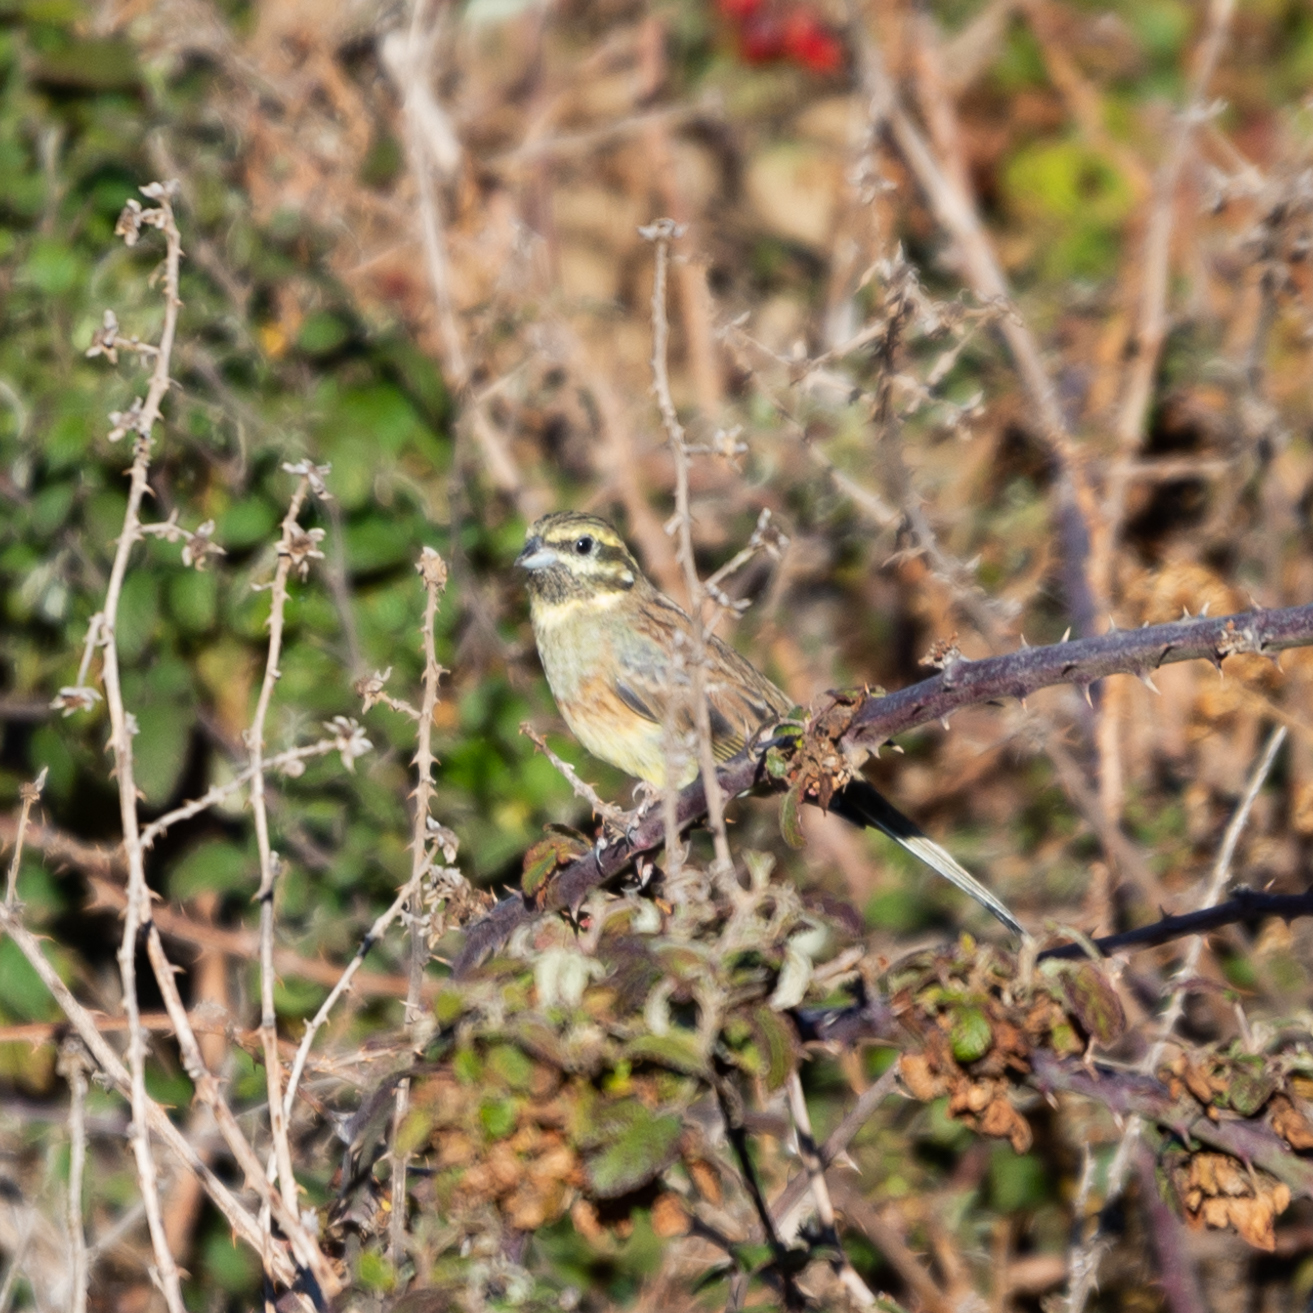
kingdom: Animalia
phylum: Chordata
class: Aves
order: Passeriformes
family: Emberizidae
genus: Emberiza
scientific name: Emberiza cirlus
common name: Cirl bunting
